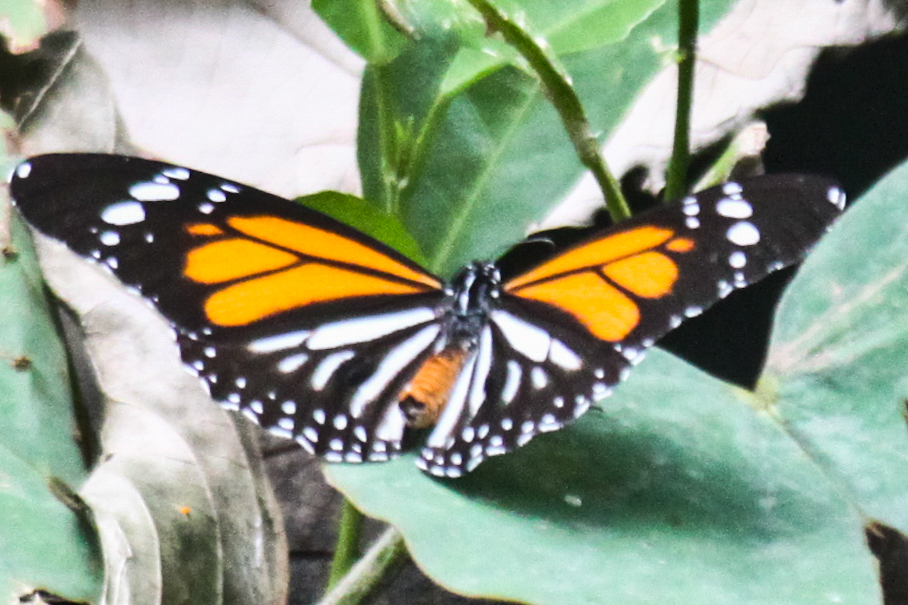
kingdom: Animalia
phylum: Arthropoda
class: Insecta
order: Lepidoptera
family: Nymphalidae
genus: Danaus
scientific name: Danaus melanippus
